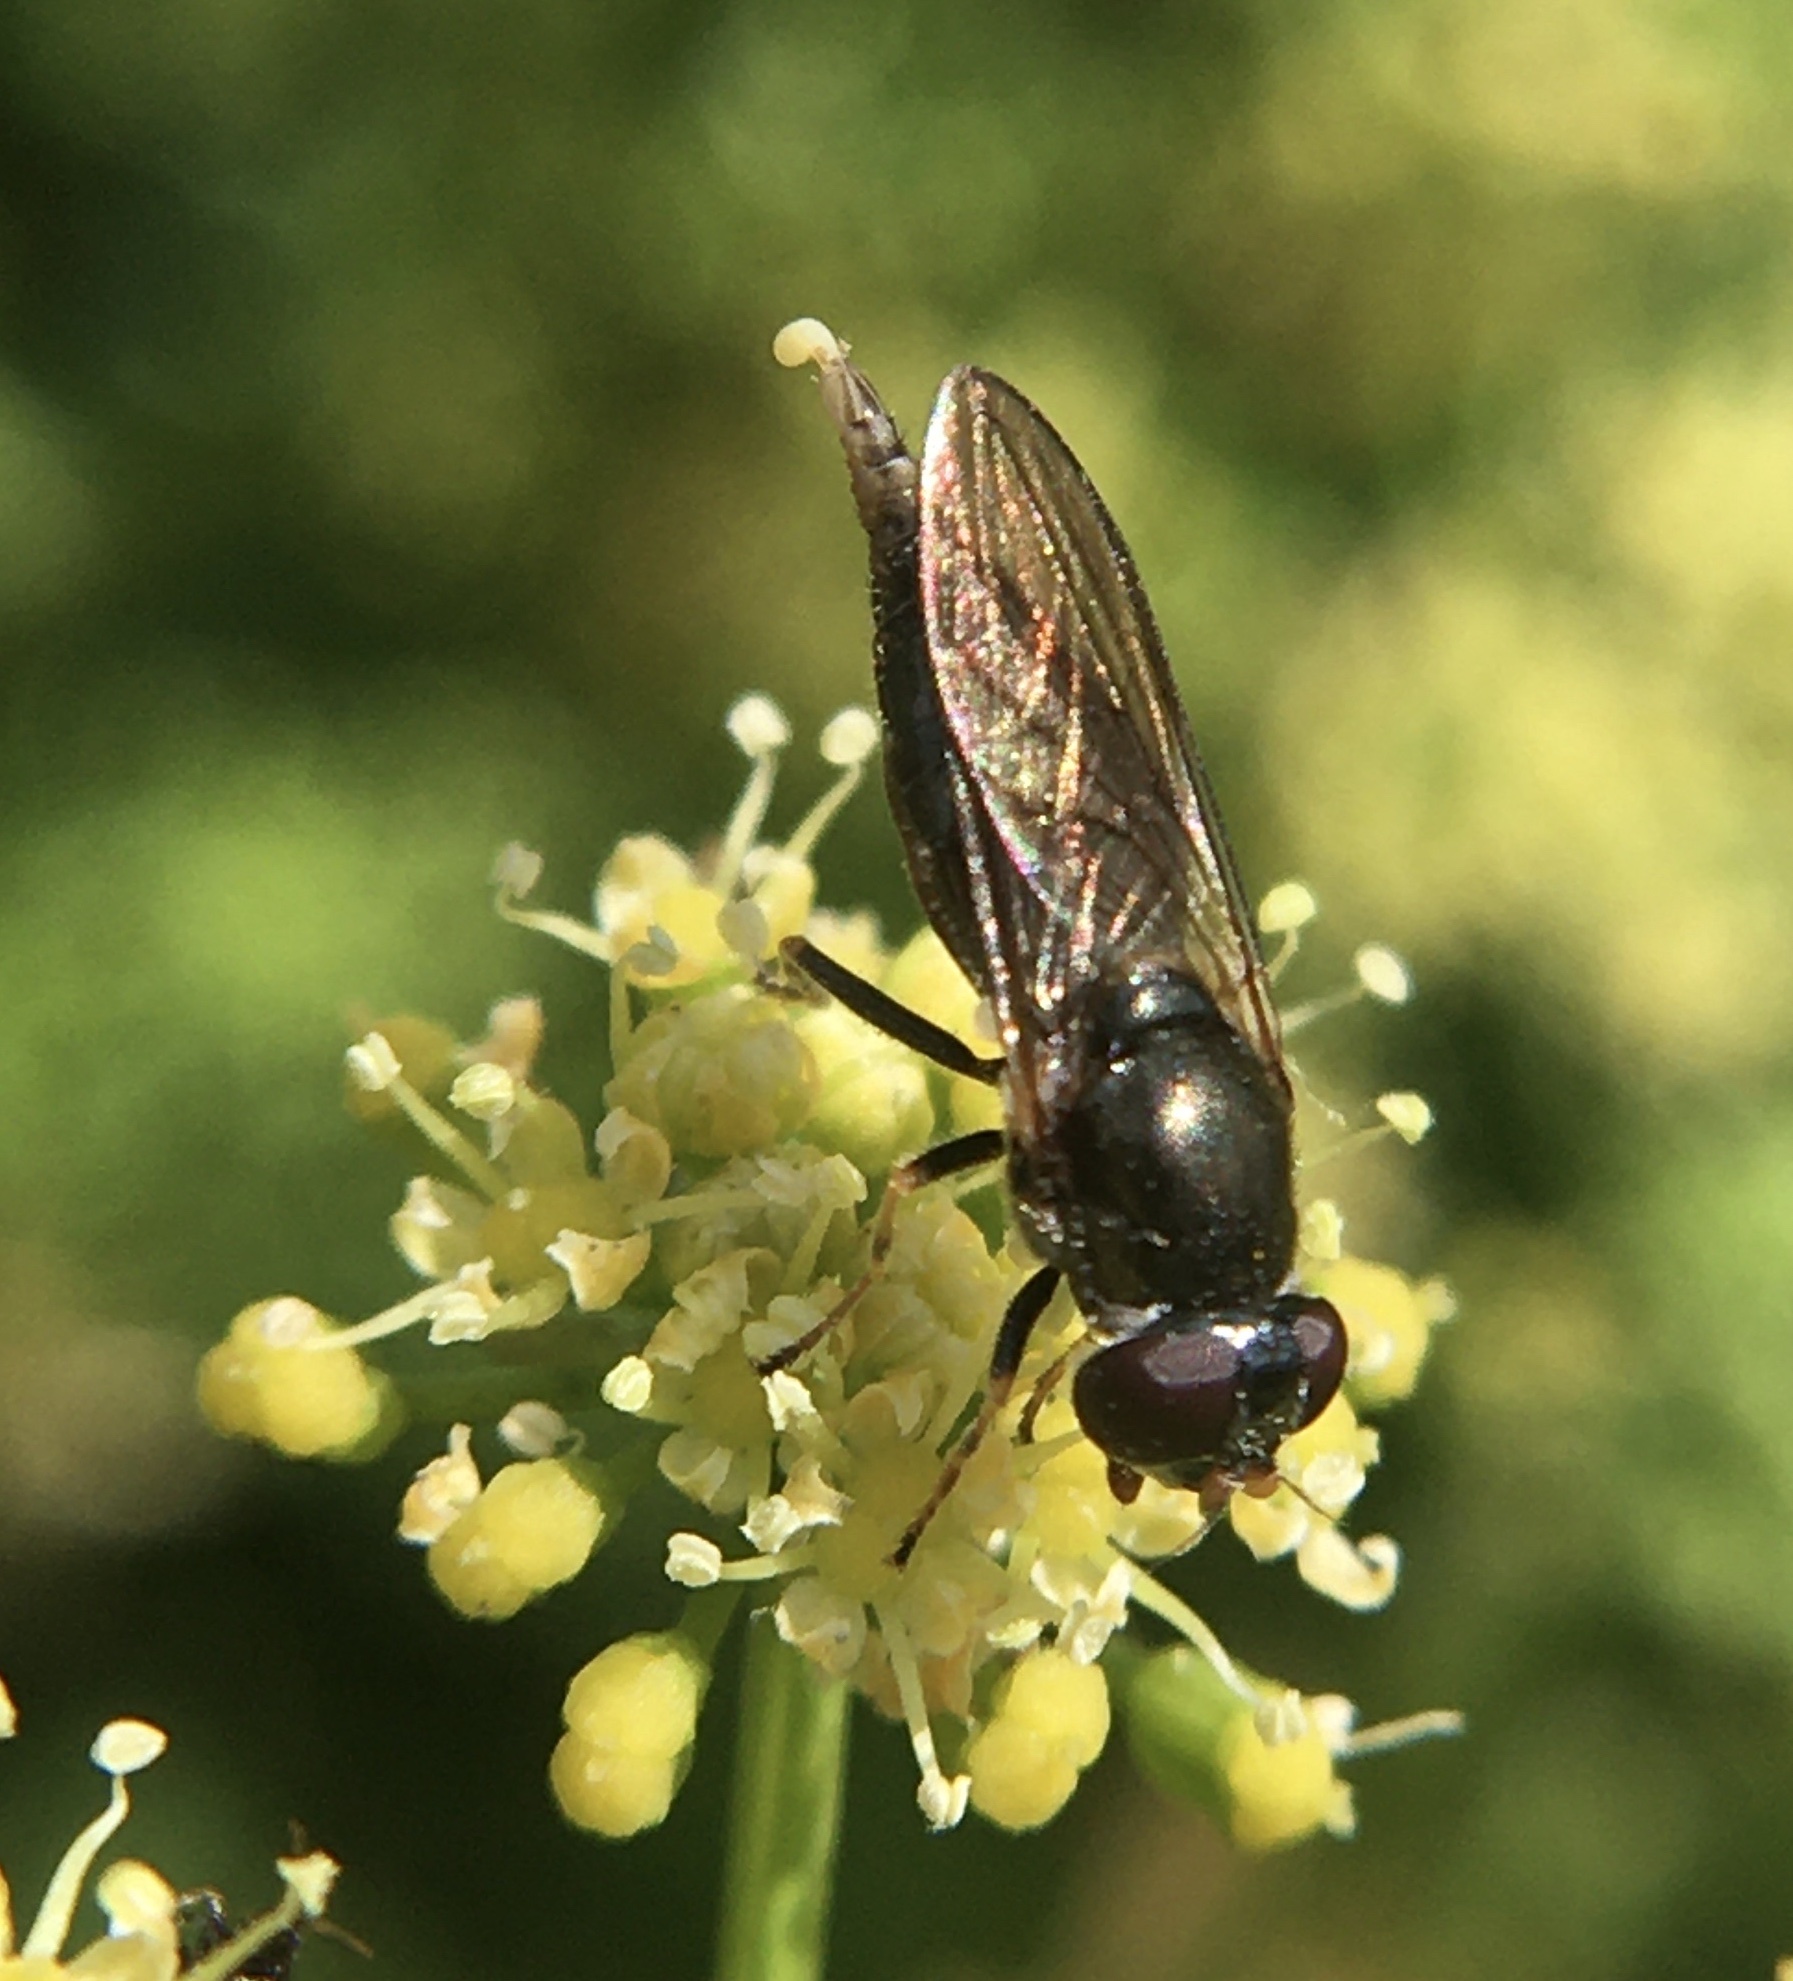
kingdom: Animalia
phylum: Arthropoda
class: Insecta
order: Diptera
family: Syrphidae
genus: Cheilosia
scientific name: Cheilosia ruffipes
